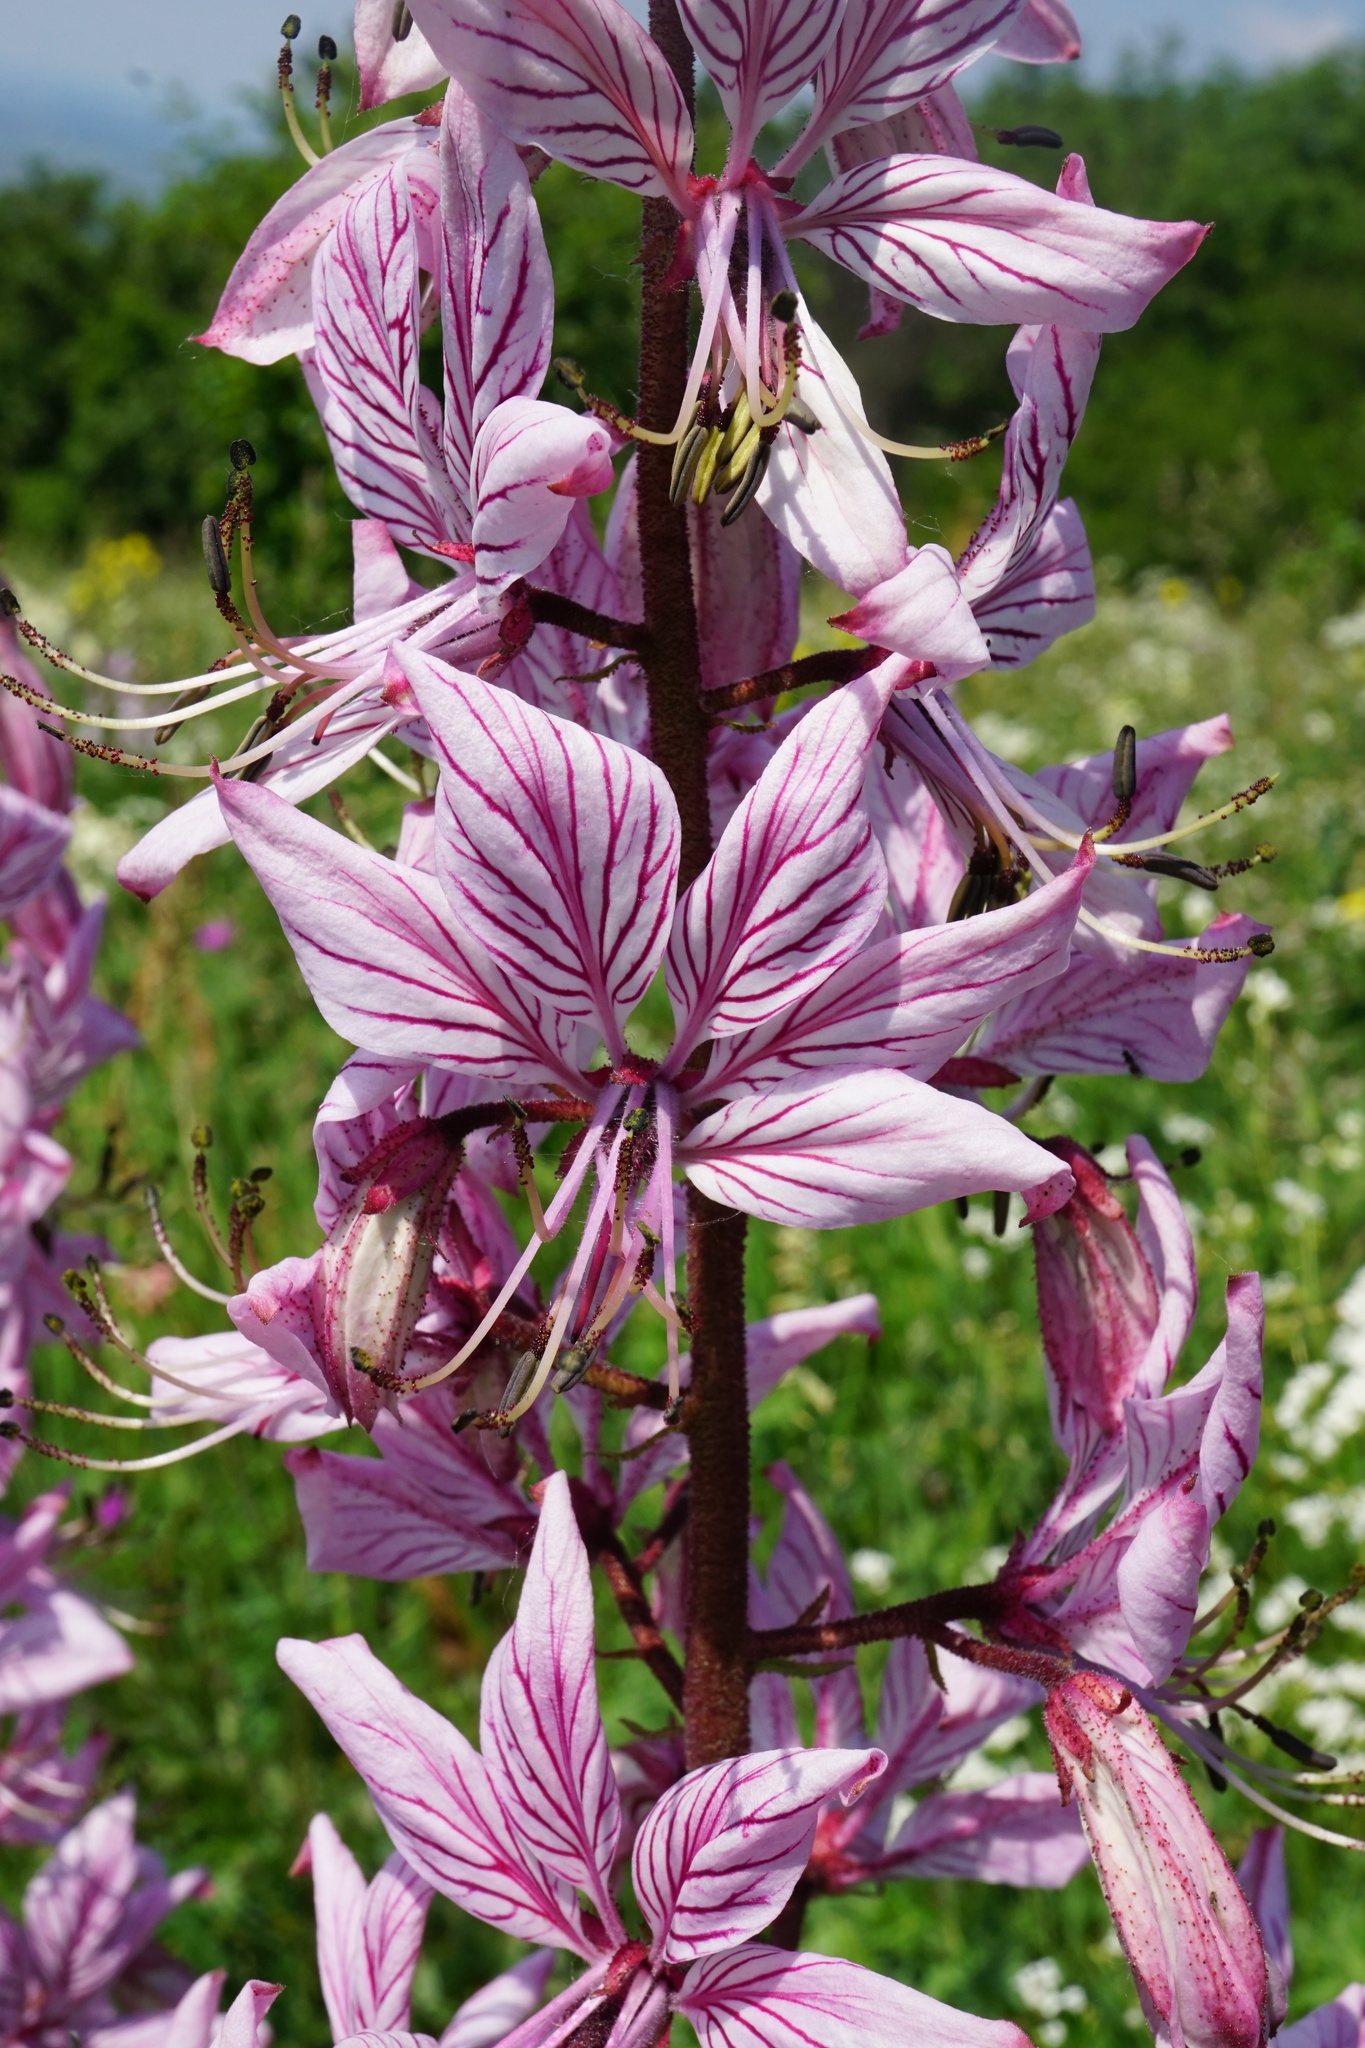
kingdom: Plantae
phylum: Tracheophyta
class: Magnoliopsida
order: Sapindales
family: Rutaceae
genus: Dictamnus
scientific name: Dictamnus albus
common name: Gasplant
